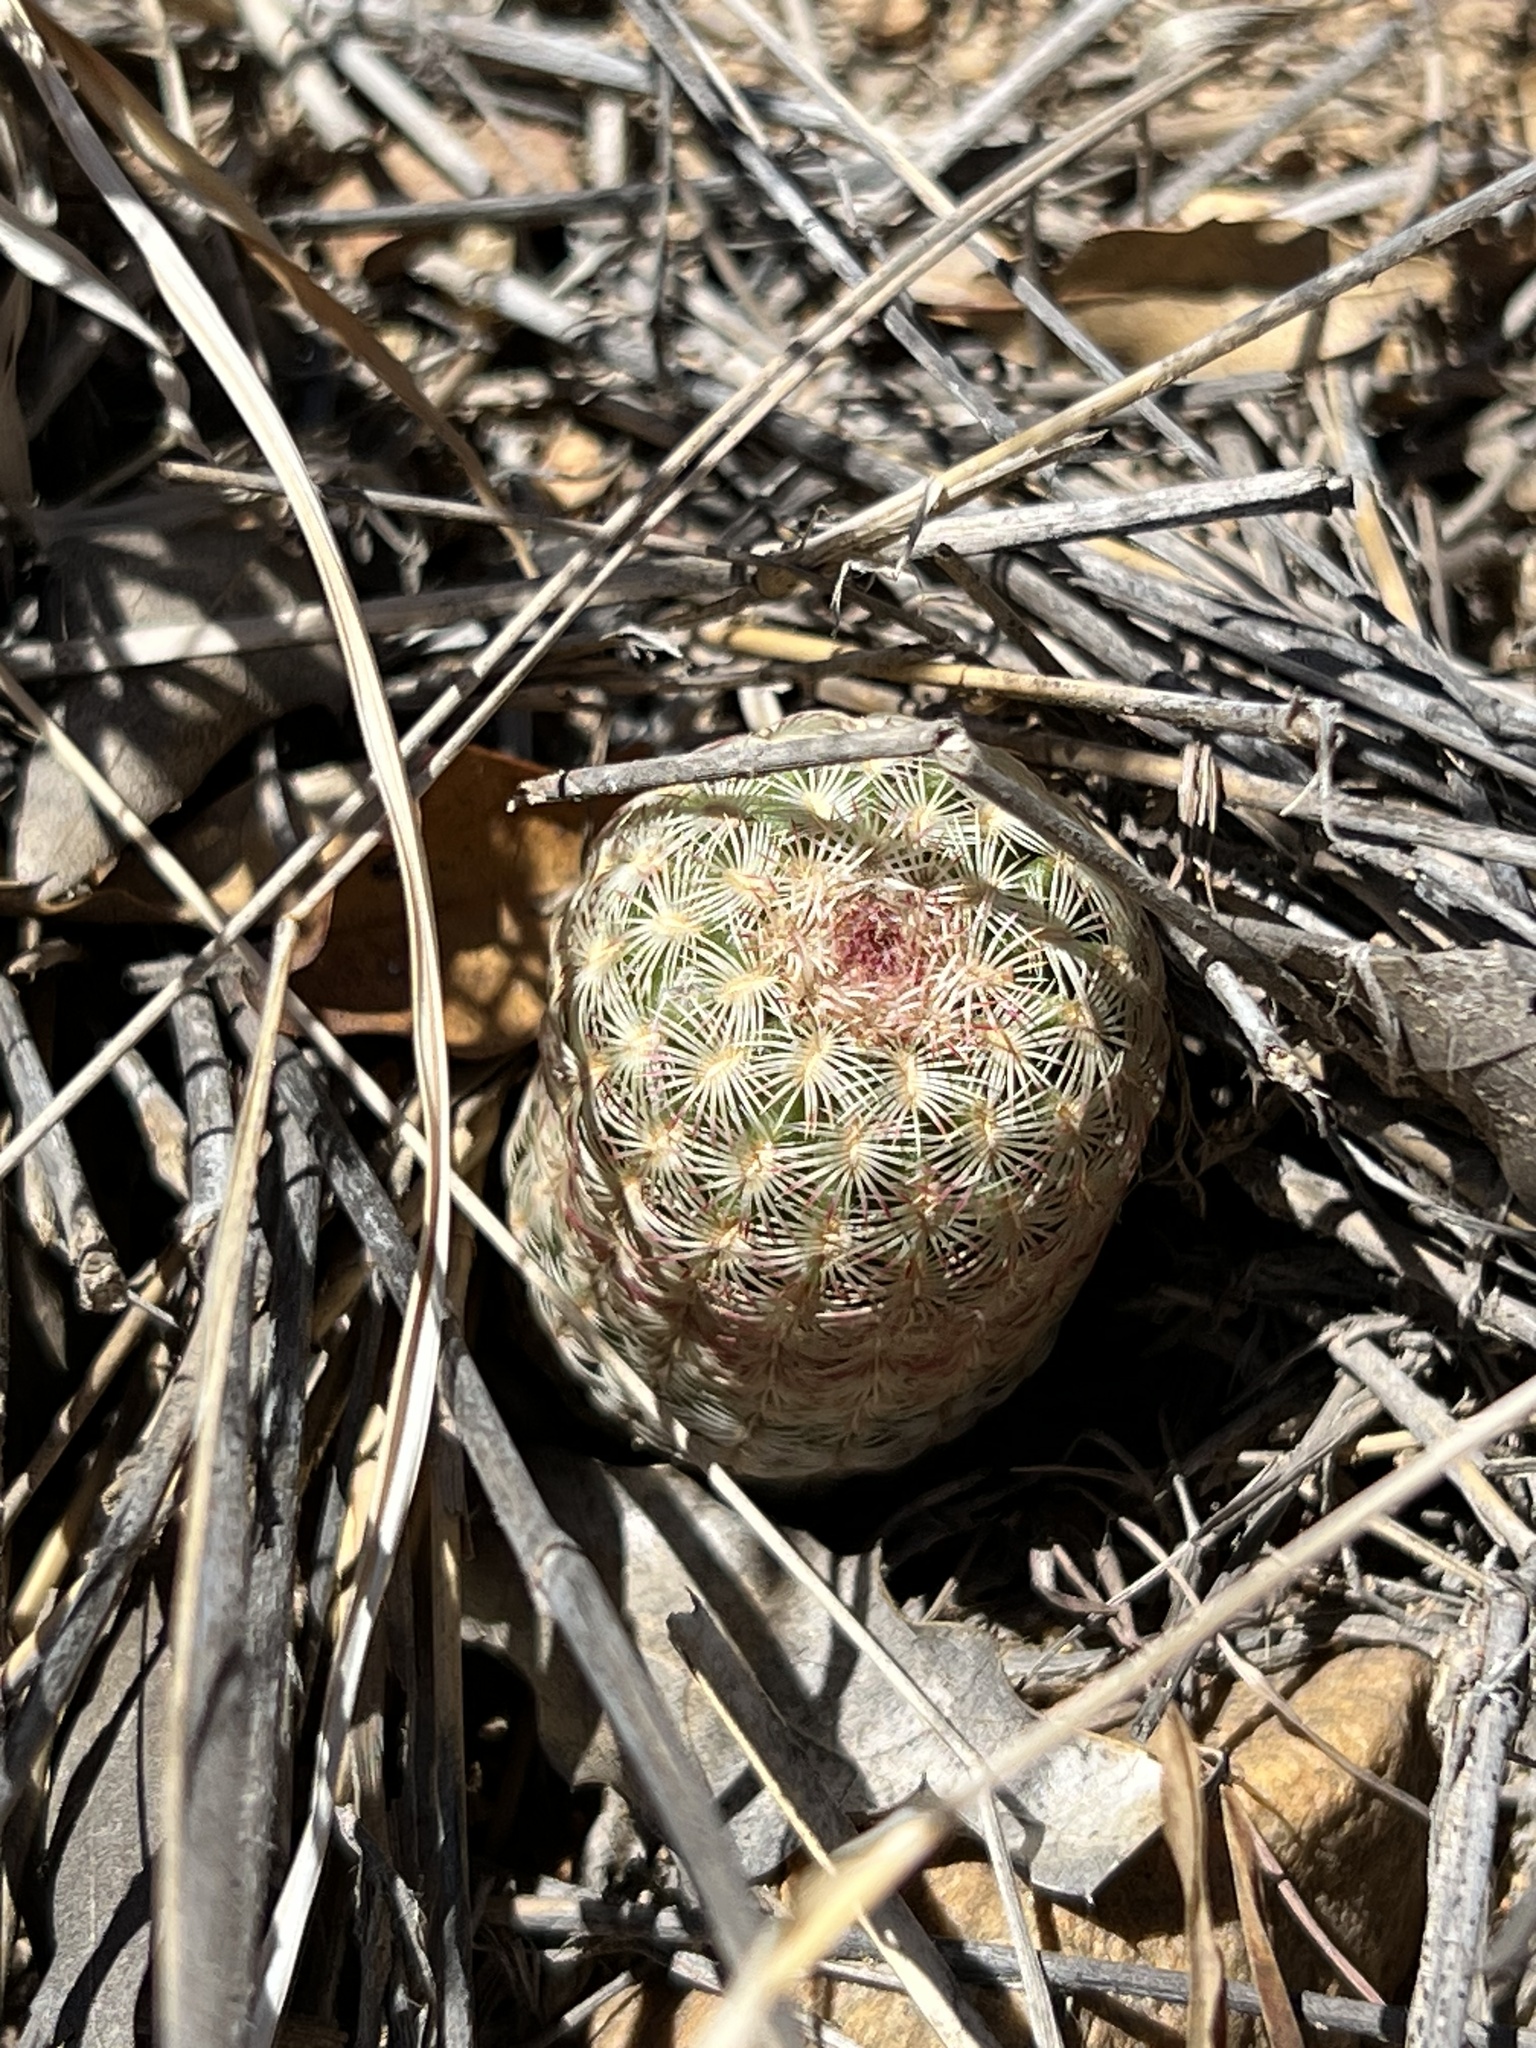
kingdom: Plantae
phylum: Tracheophyta
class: Magnoliopsida
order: Caryophyllales
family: Cactaceae
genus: Echinocereus
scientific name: Echinocereus rigidissimus
